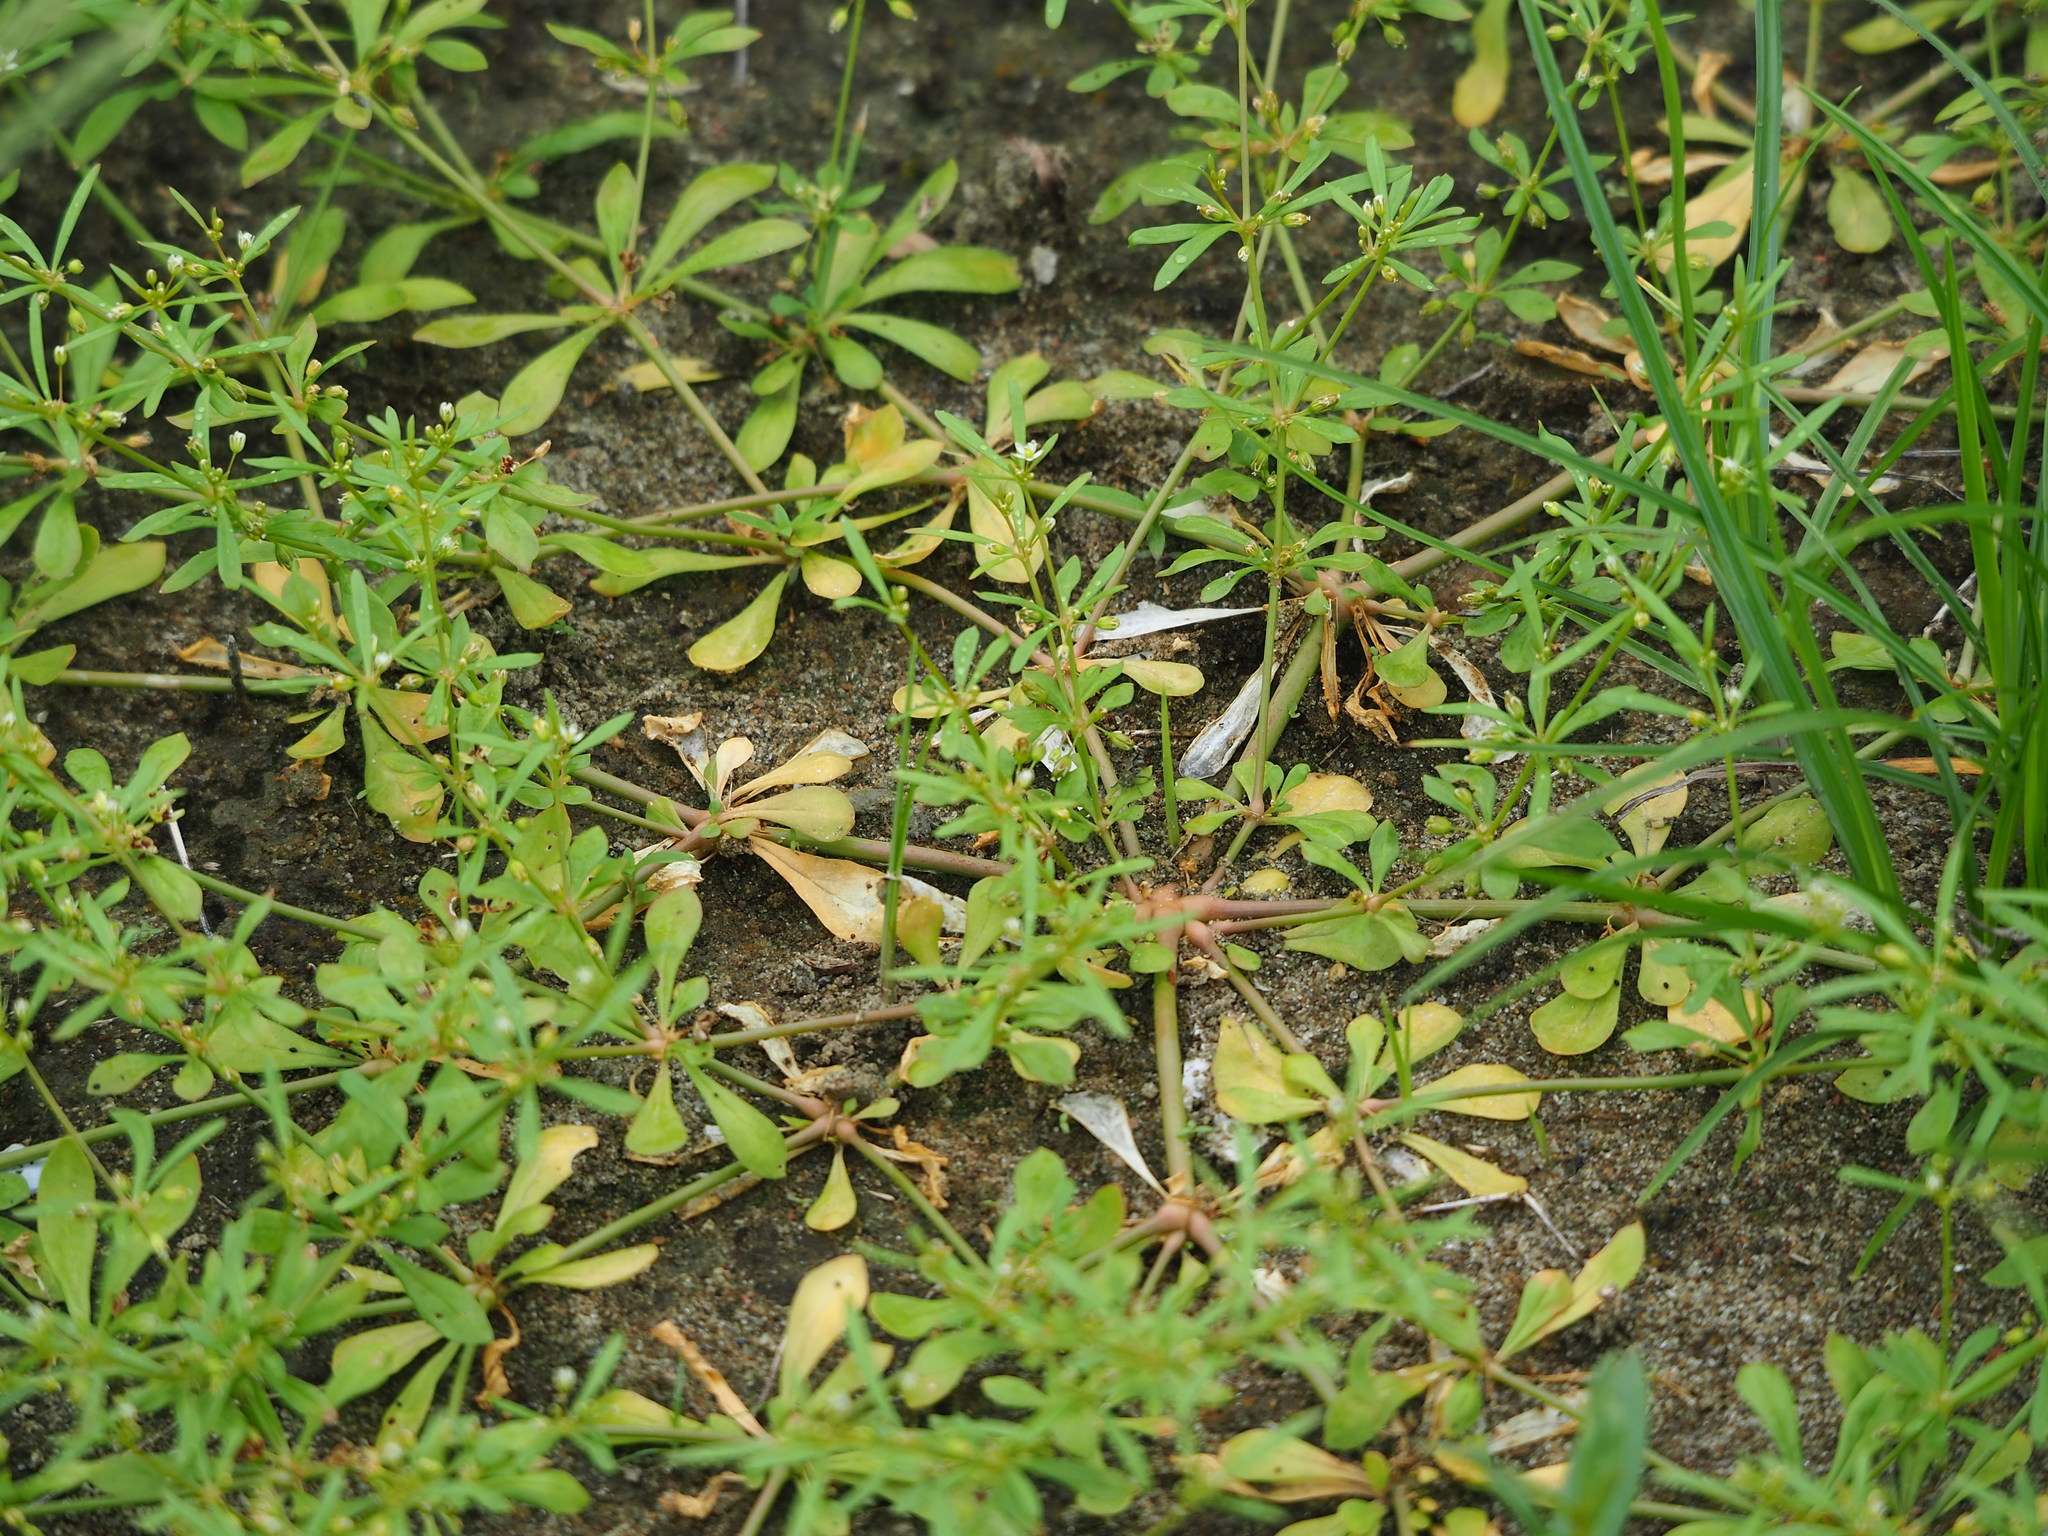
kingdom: Plantae
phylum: Tracheophyta
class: Magnoliopsida
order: Caryophyllales
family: Molluginaceae
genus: Mollugo
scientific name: Mollugo verticillata
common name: Green carpetweed
